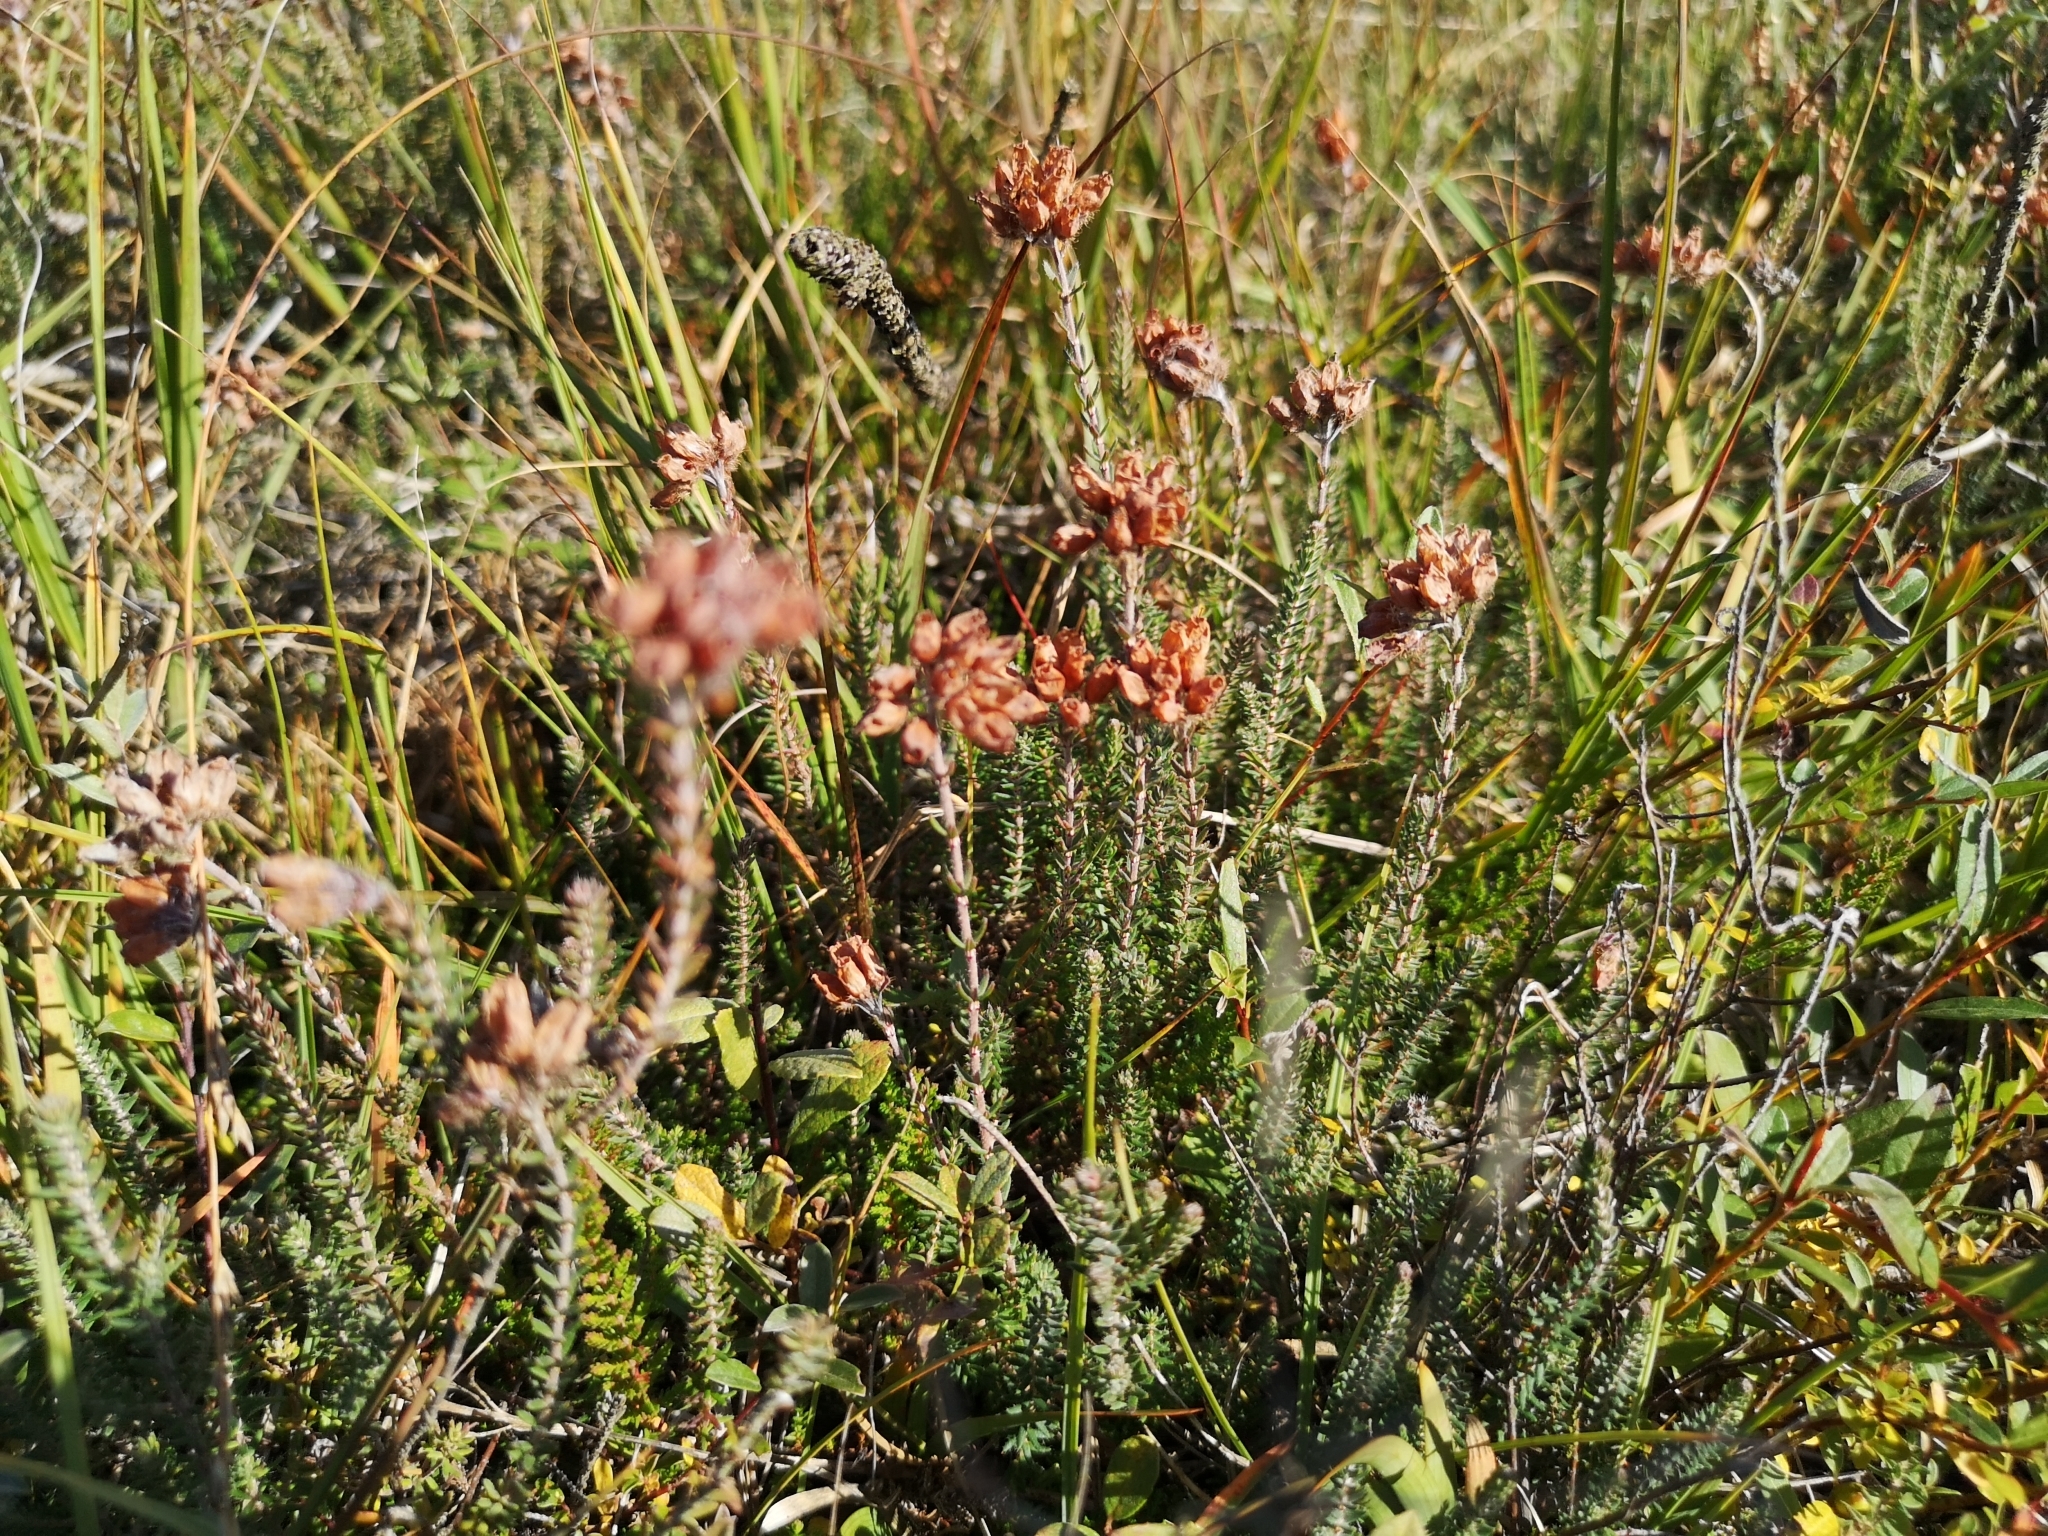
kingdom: Plantae
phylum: Tracheophyta
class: Magnoliopsida
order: Ericales
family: Ericaceae
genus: Erica
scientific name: Erica tetralix
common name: Cross-leaved heath
